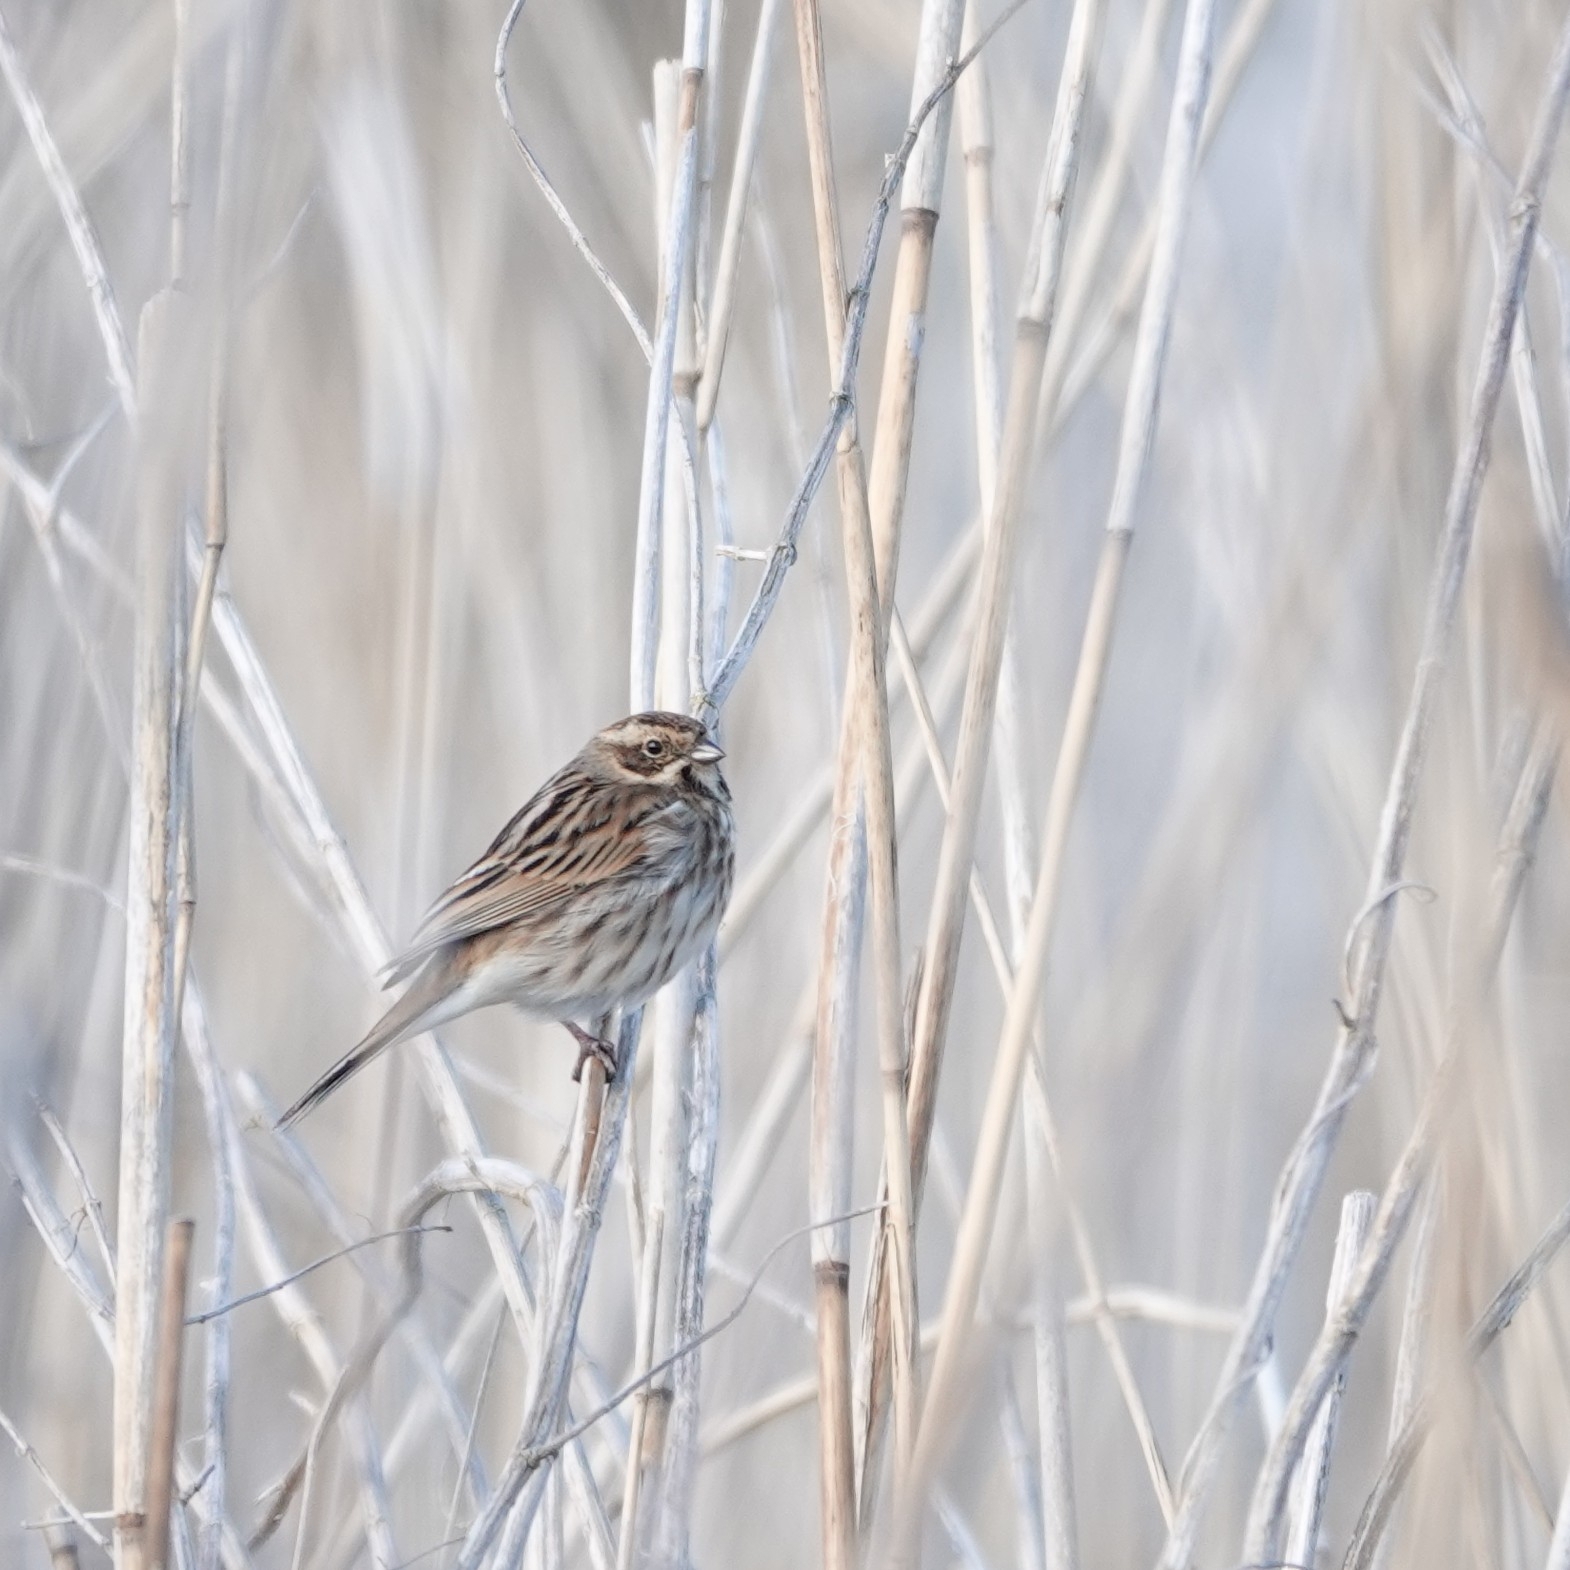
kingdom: Animalia
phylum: Chordata
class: Aves
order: Passeriformes
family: Emberizidae
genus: Emberiza
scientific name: Emberiza schoeniclus
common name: Reed bunting
